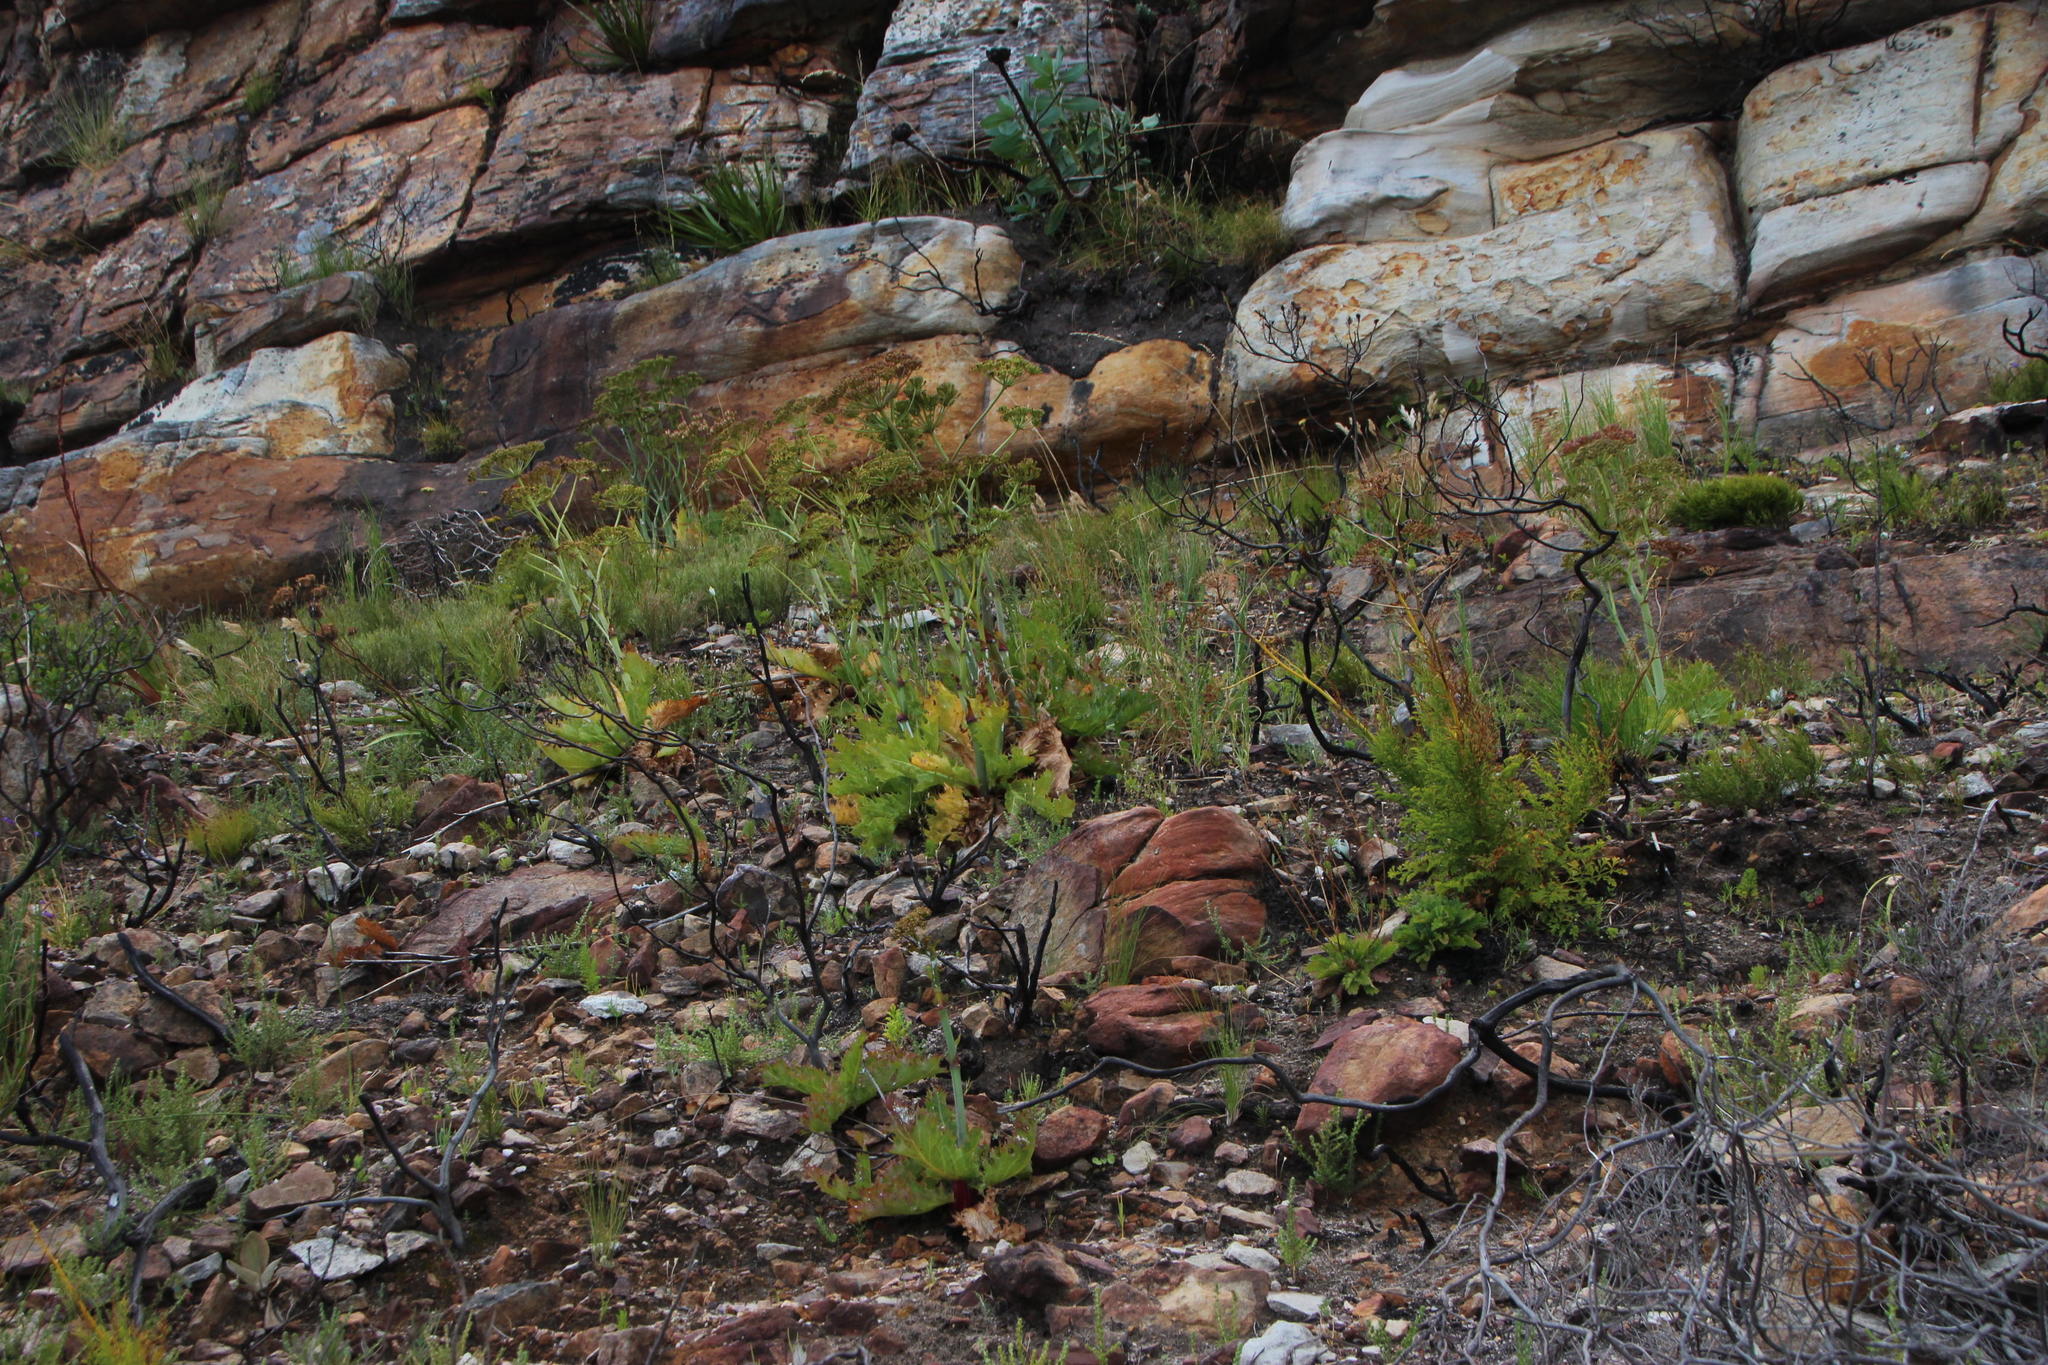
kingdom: Plantae
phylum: Tracheophyta
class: Magnoliopsida
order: Apiales
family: Apiaceae
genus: Lichtensteinia
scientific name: Lichtensteinia lacera
